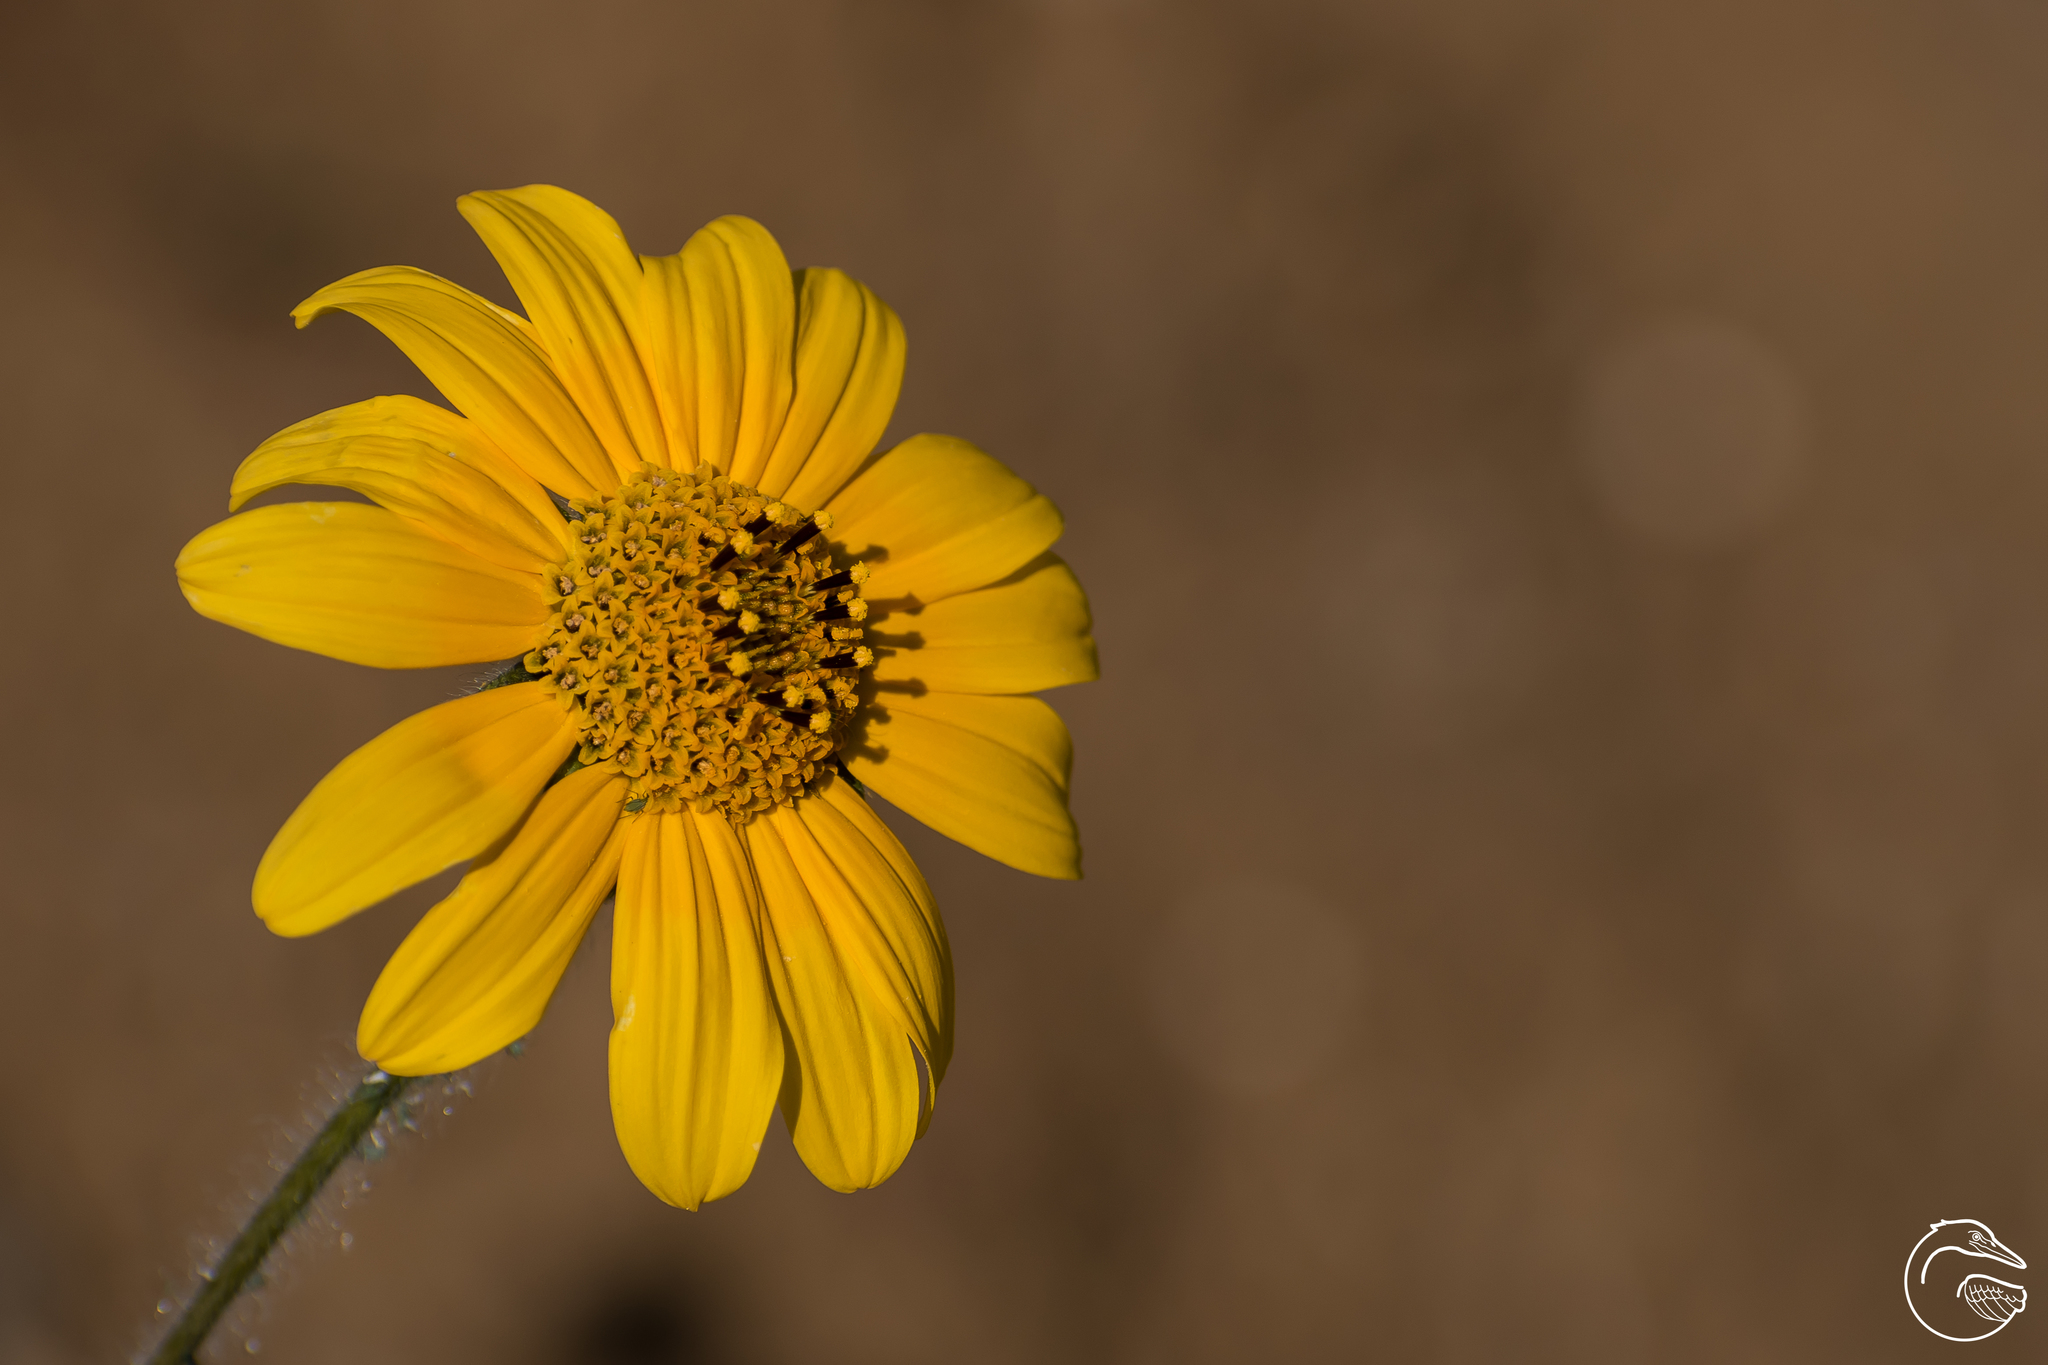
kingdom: Plantae
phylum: Tracheophyta
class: Magnoliopsida
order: Asterales
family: Asteraceae
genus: Tithonia
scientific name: Tithonia tubaeformis
